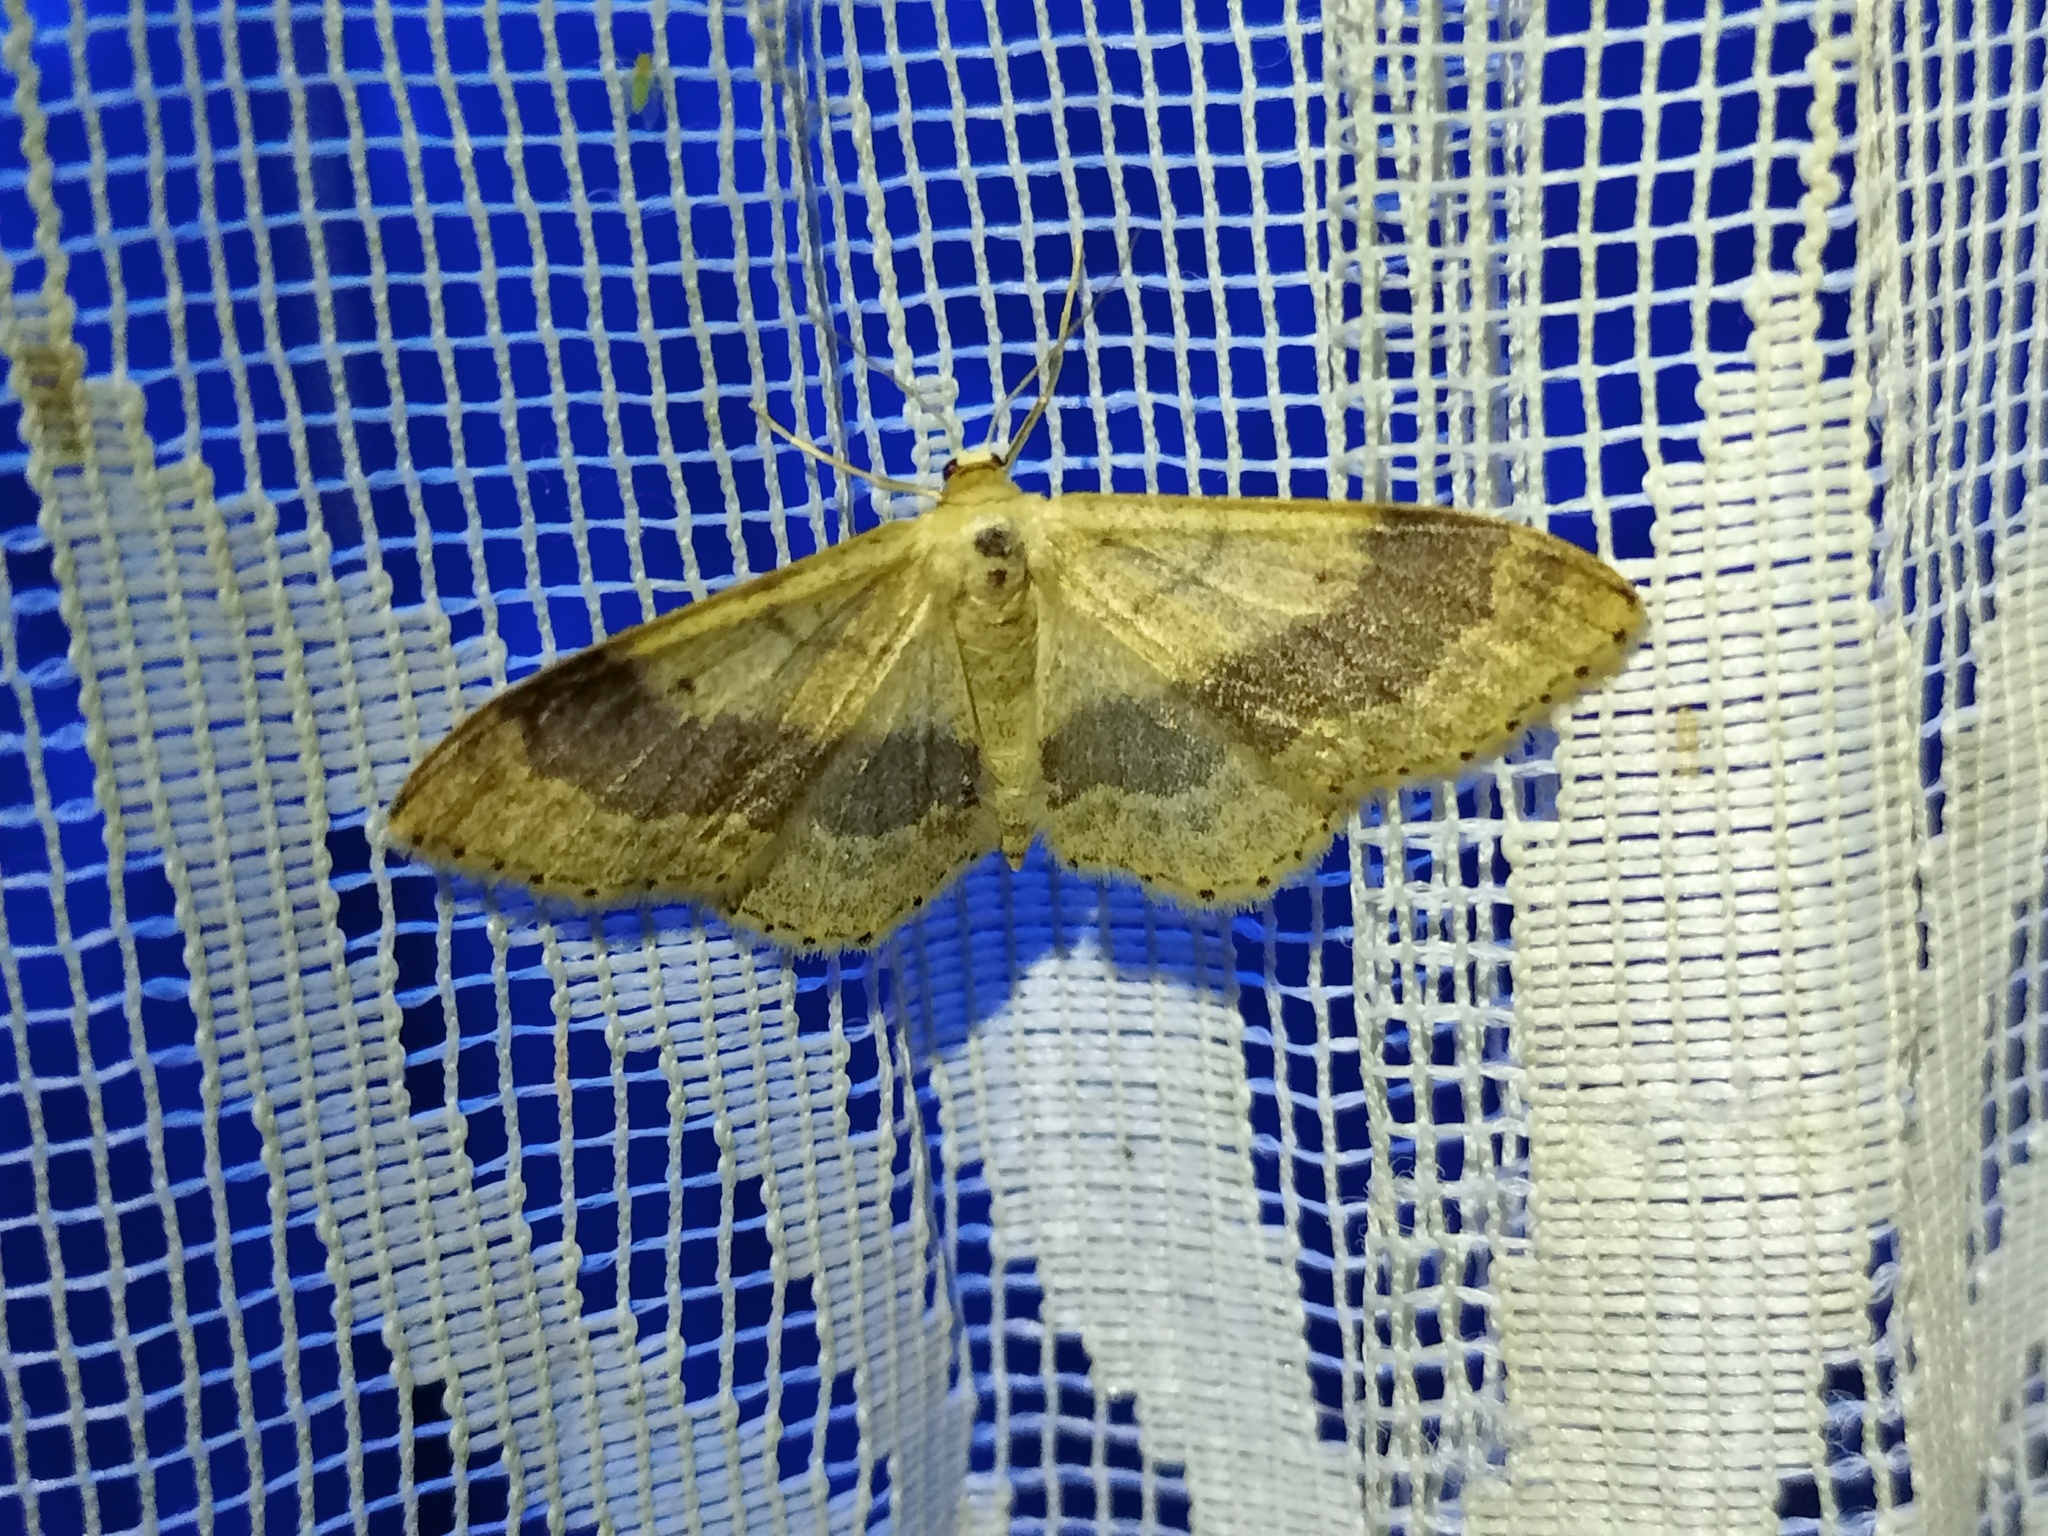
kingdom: Animalia
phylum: Arthropoda
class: Insecta
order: Lepidoptera
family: Geometridae
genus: Idaea
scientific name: Idaea aversata
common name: Riband wave
